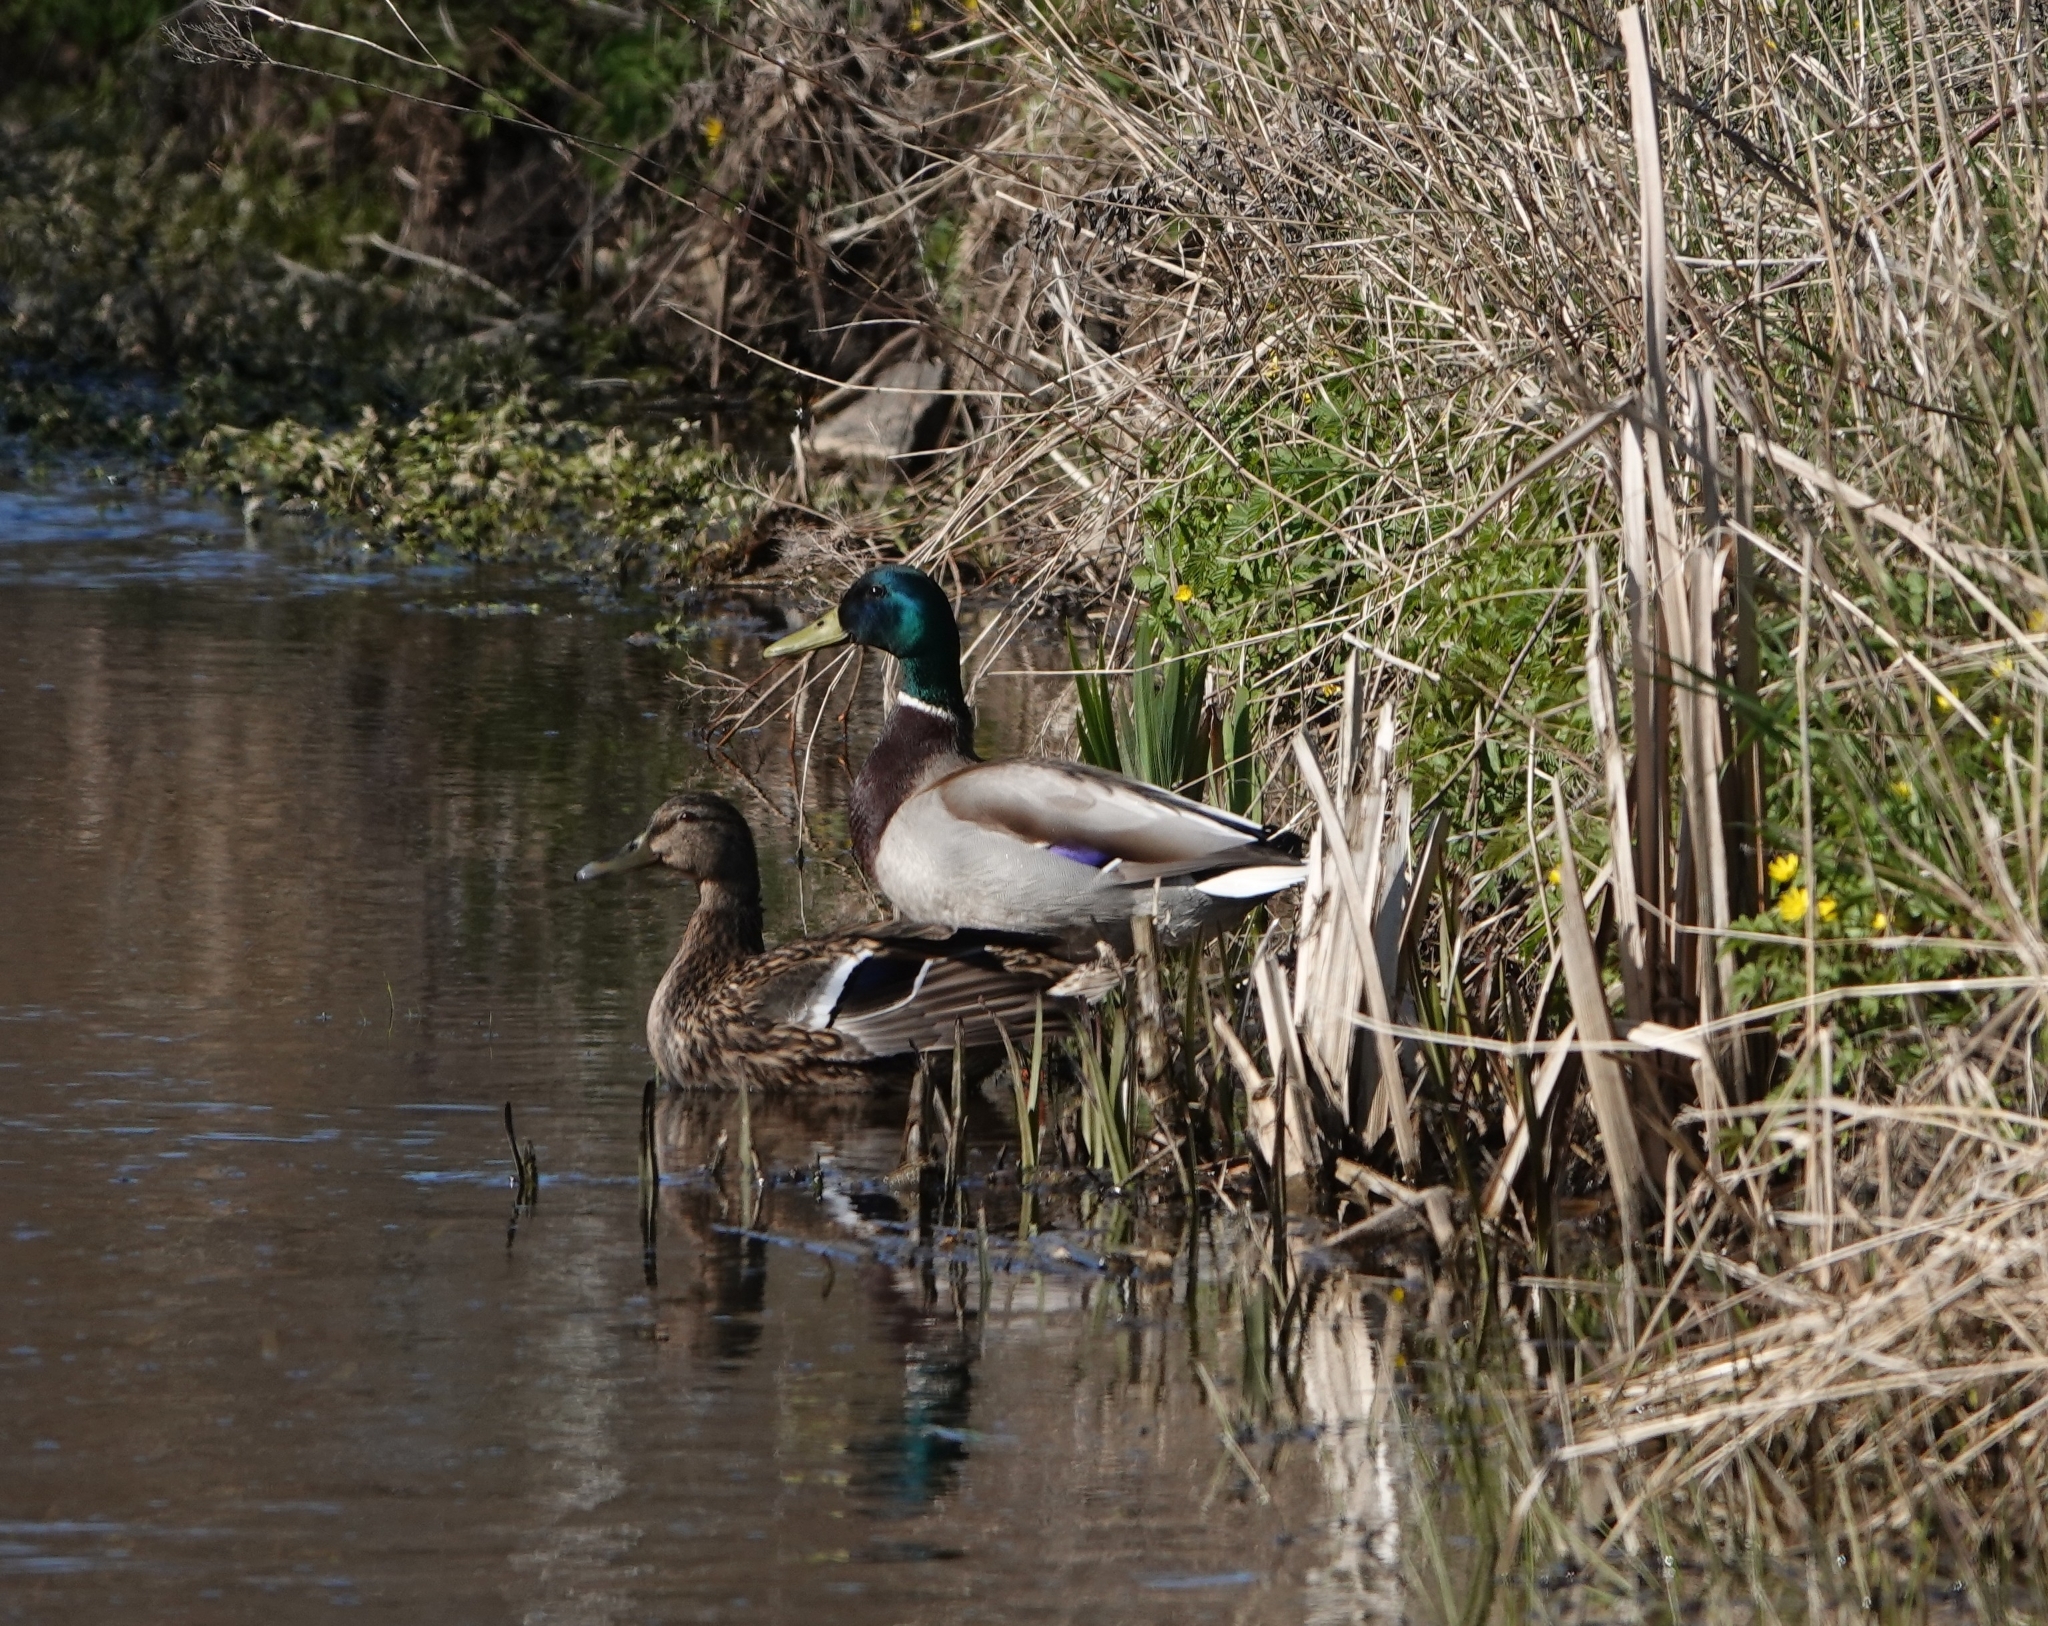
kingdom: Animalia
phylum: Chordata
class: Aves
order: Anseriformes
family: Anatidae
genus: Anas
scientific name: Anas platyrhynchos
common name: Mallard
